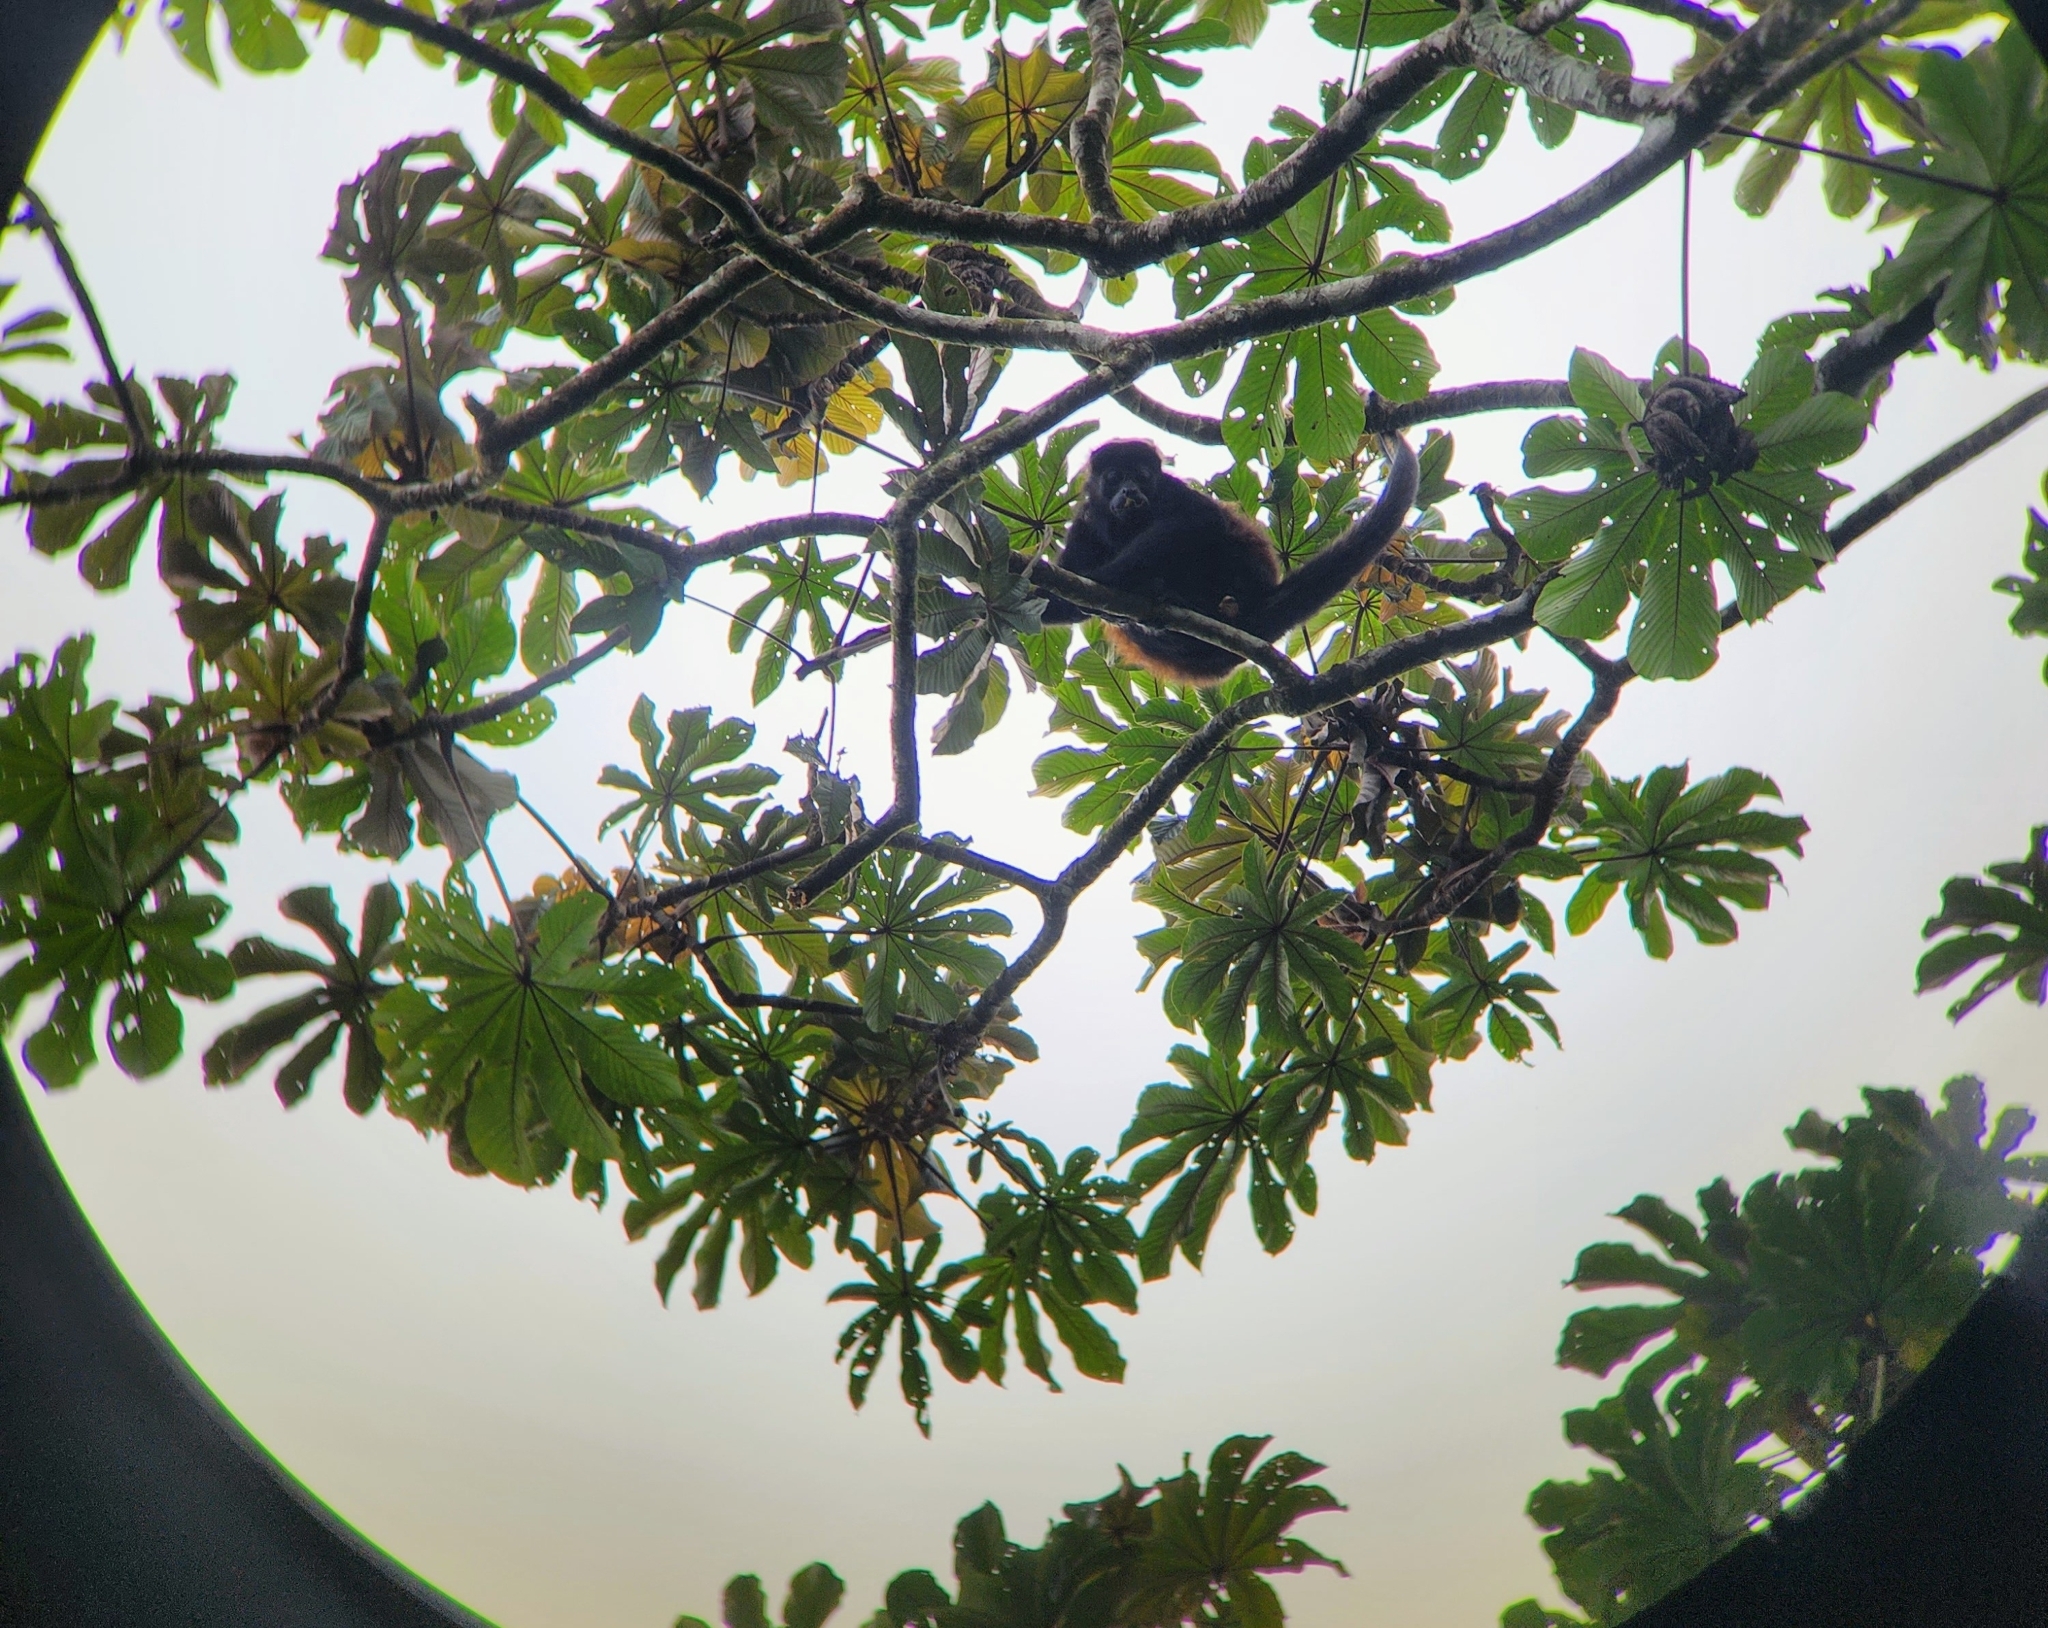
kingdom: Animalia
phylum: Chordata
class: Mammalia
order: Primates
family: Atelidae
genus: Alouatta
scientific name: Alouatta palliata
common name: Mantled howler
